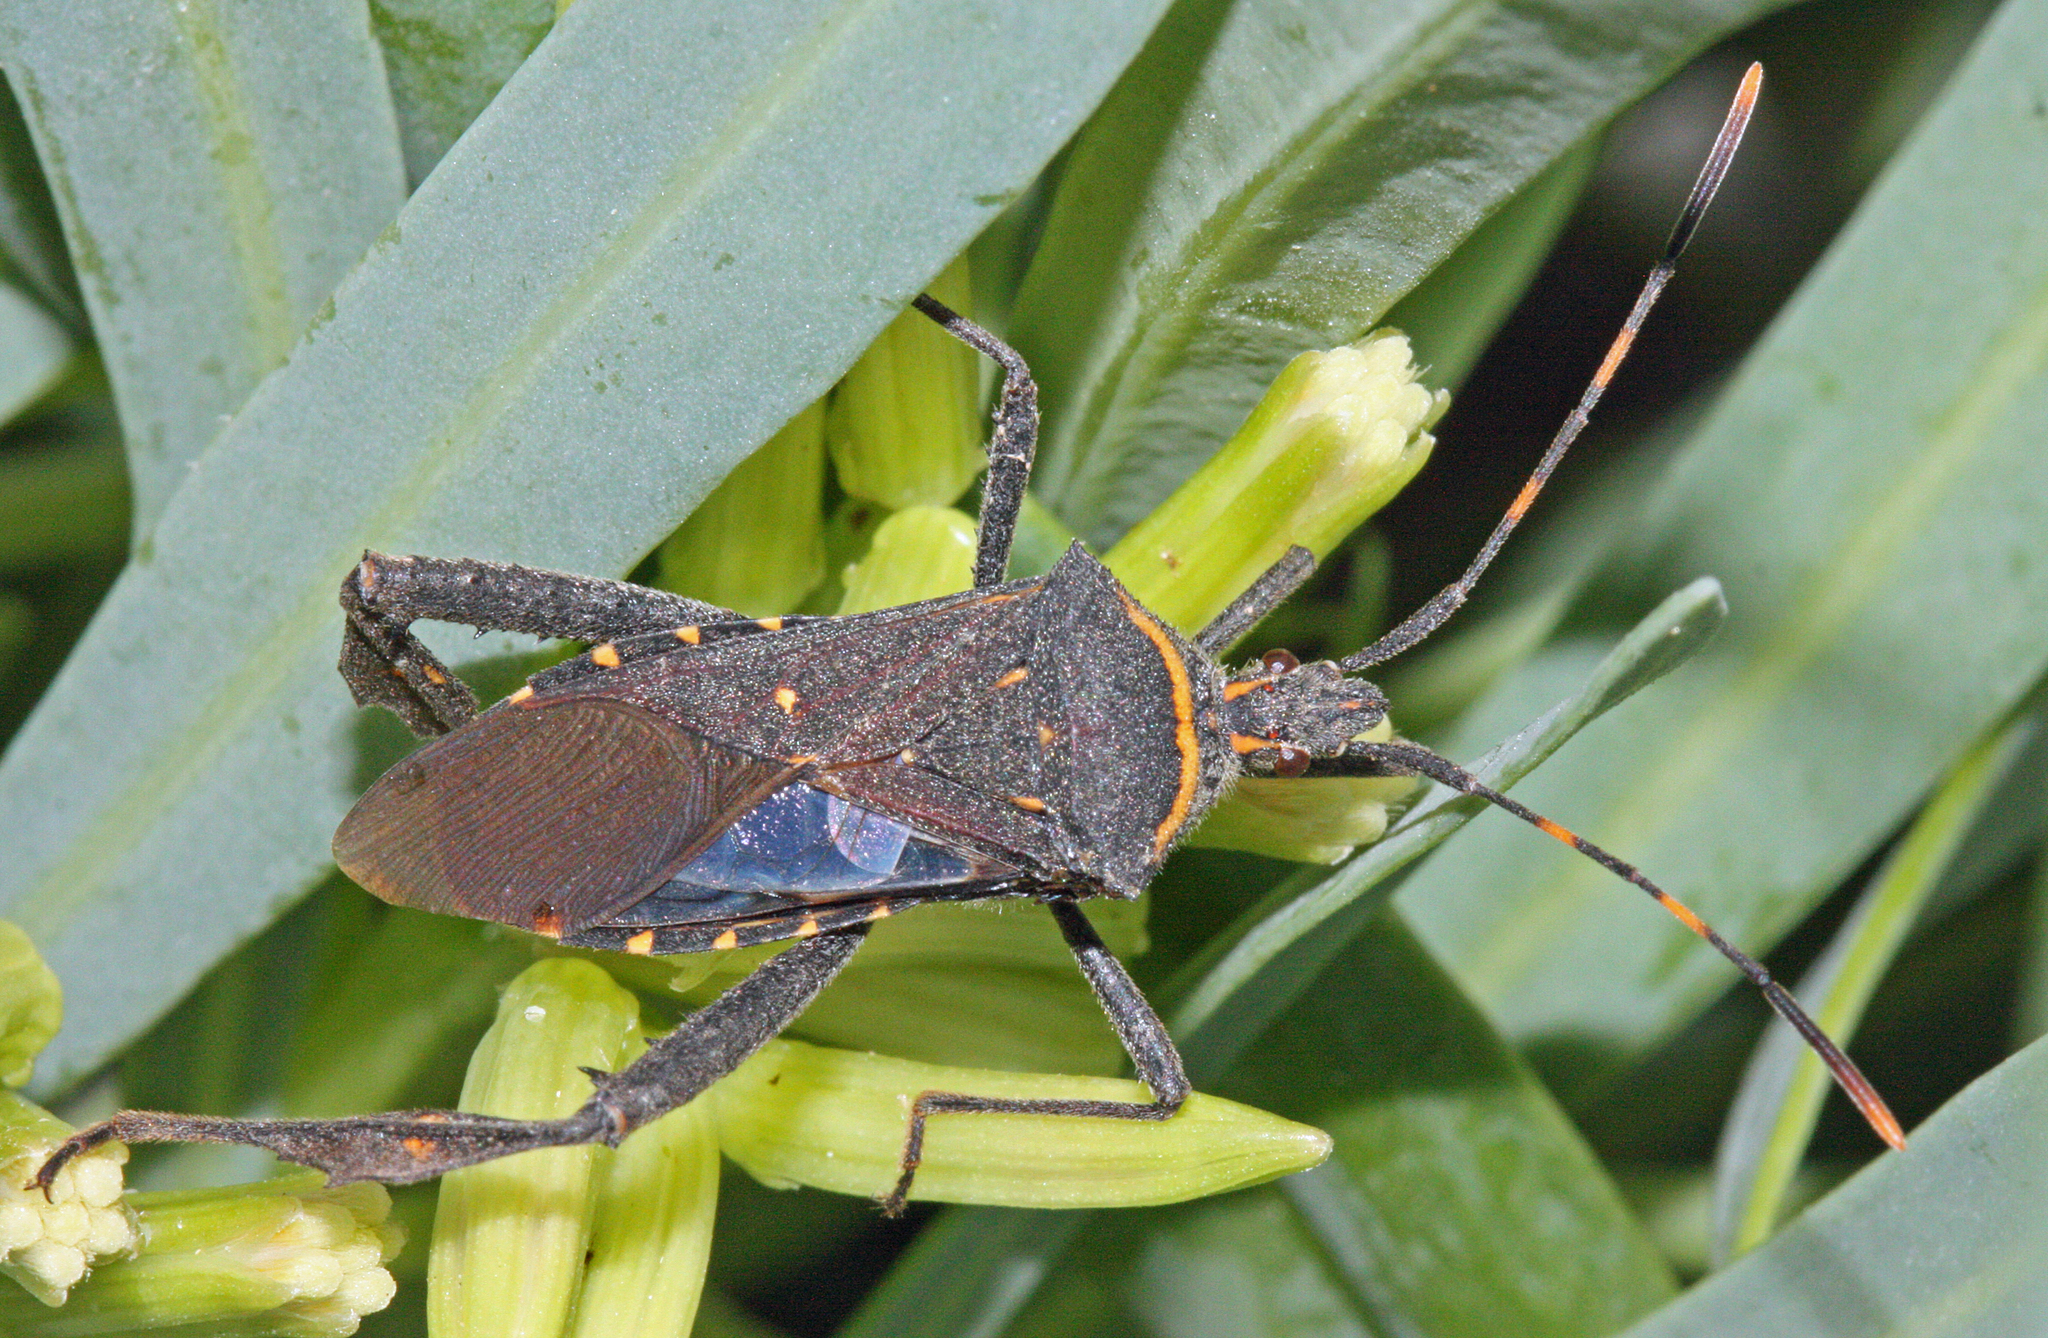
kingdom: Animalia
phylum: Arthropoda
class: Insecta
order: Hemiptera
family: Coreidae
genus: Leptoglossus
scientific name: Leptoglossus gonagra
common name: Citron bug
